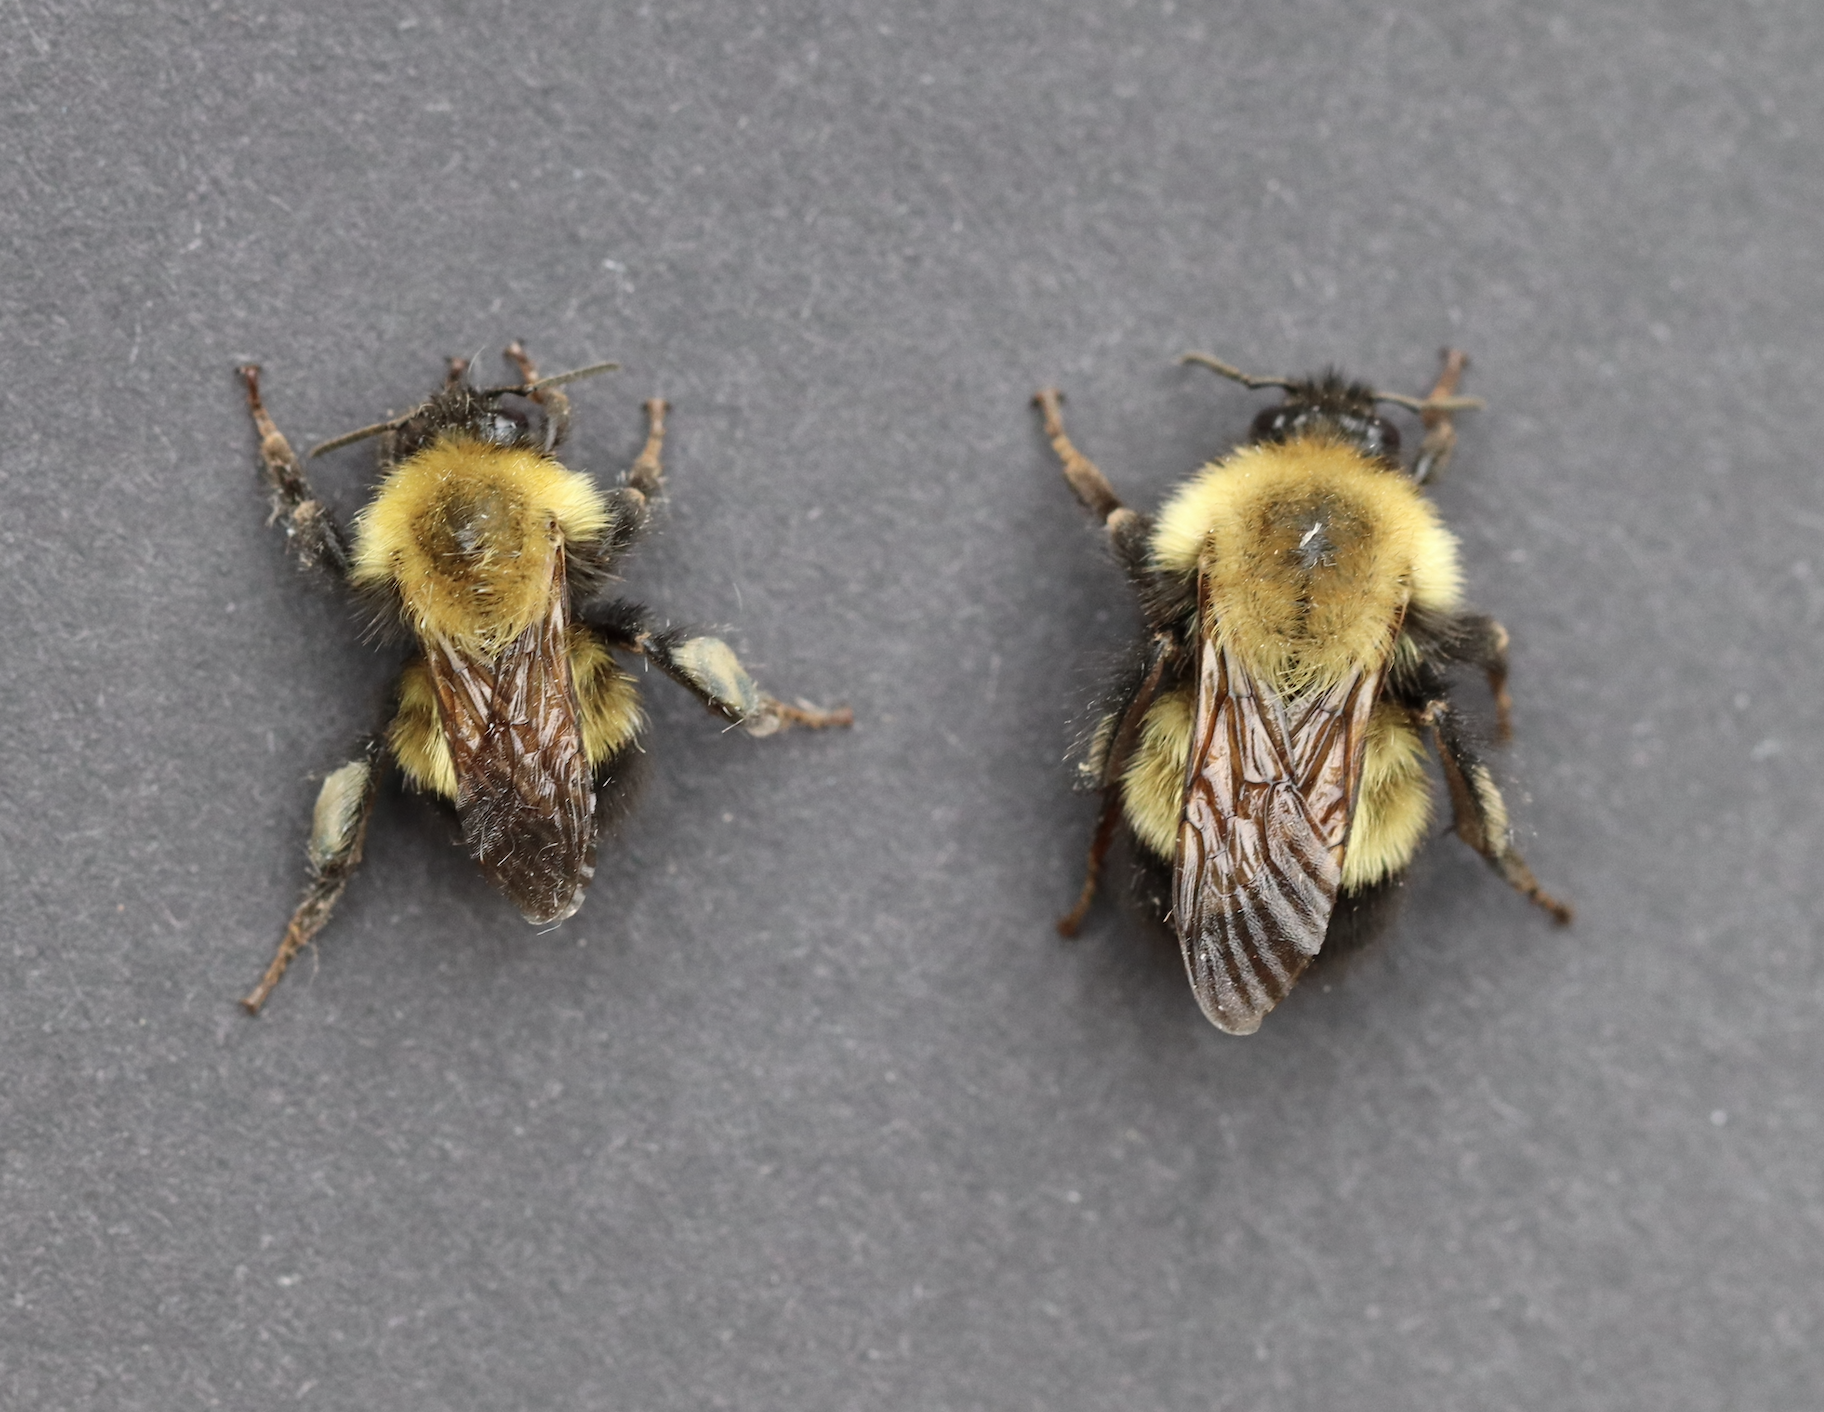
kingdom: Animalia
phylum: Arthropoda
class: Insecta
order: Hymenoptera
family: Apidae
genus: Bombus
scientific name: Bombus perplexus
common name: Confusing bumble bee
